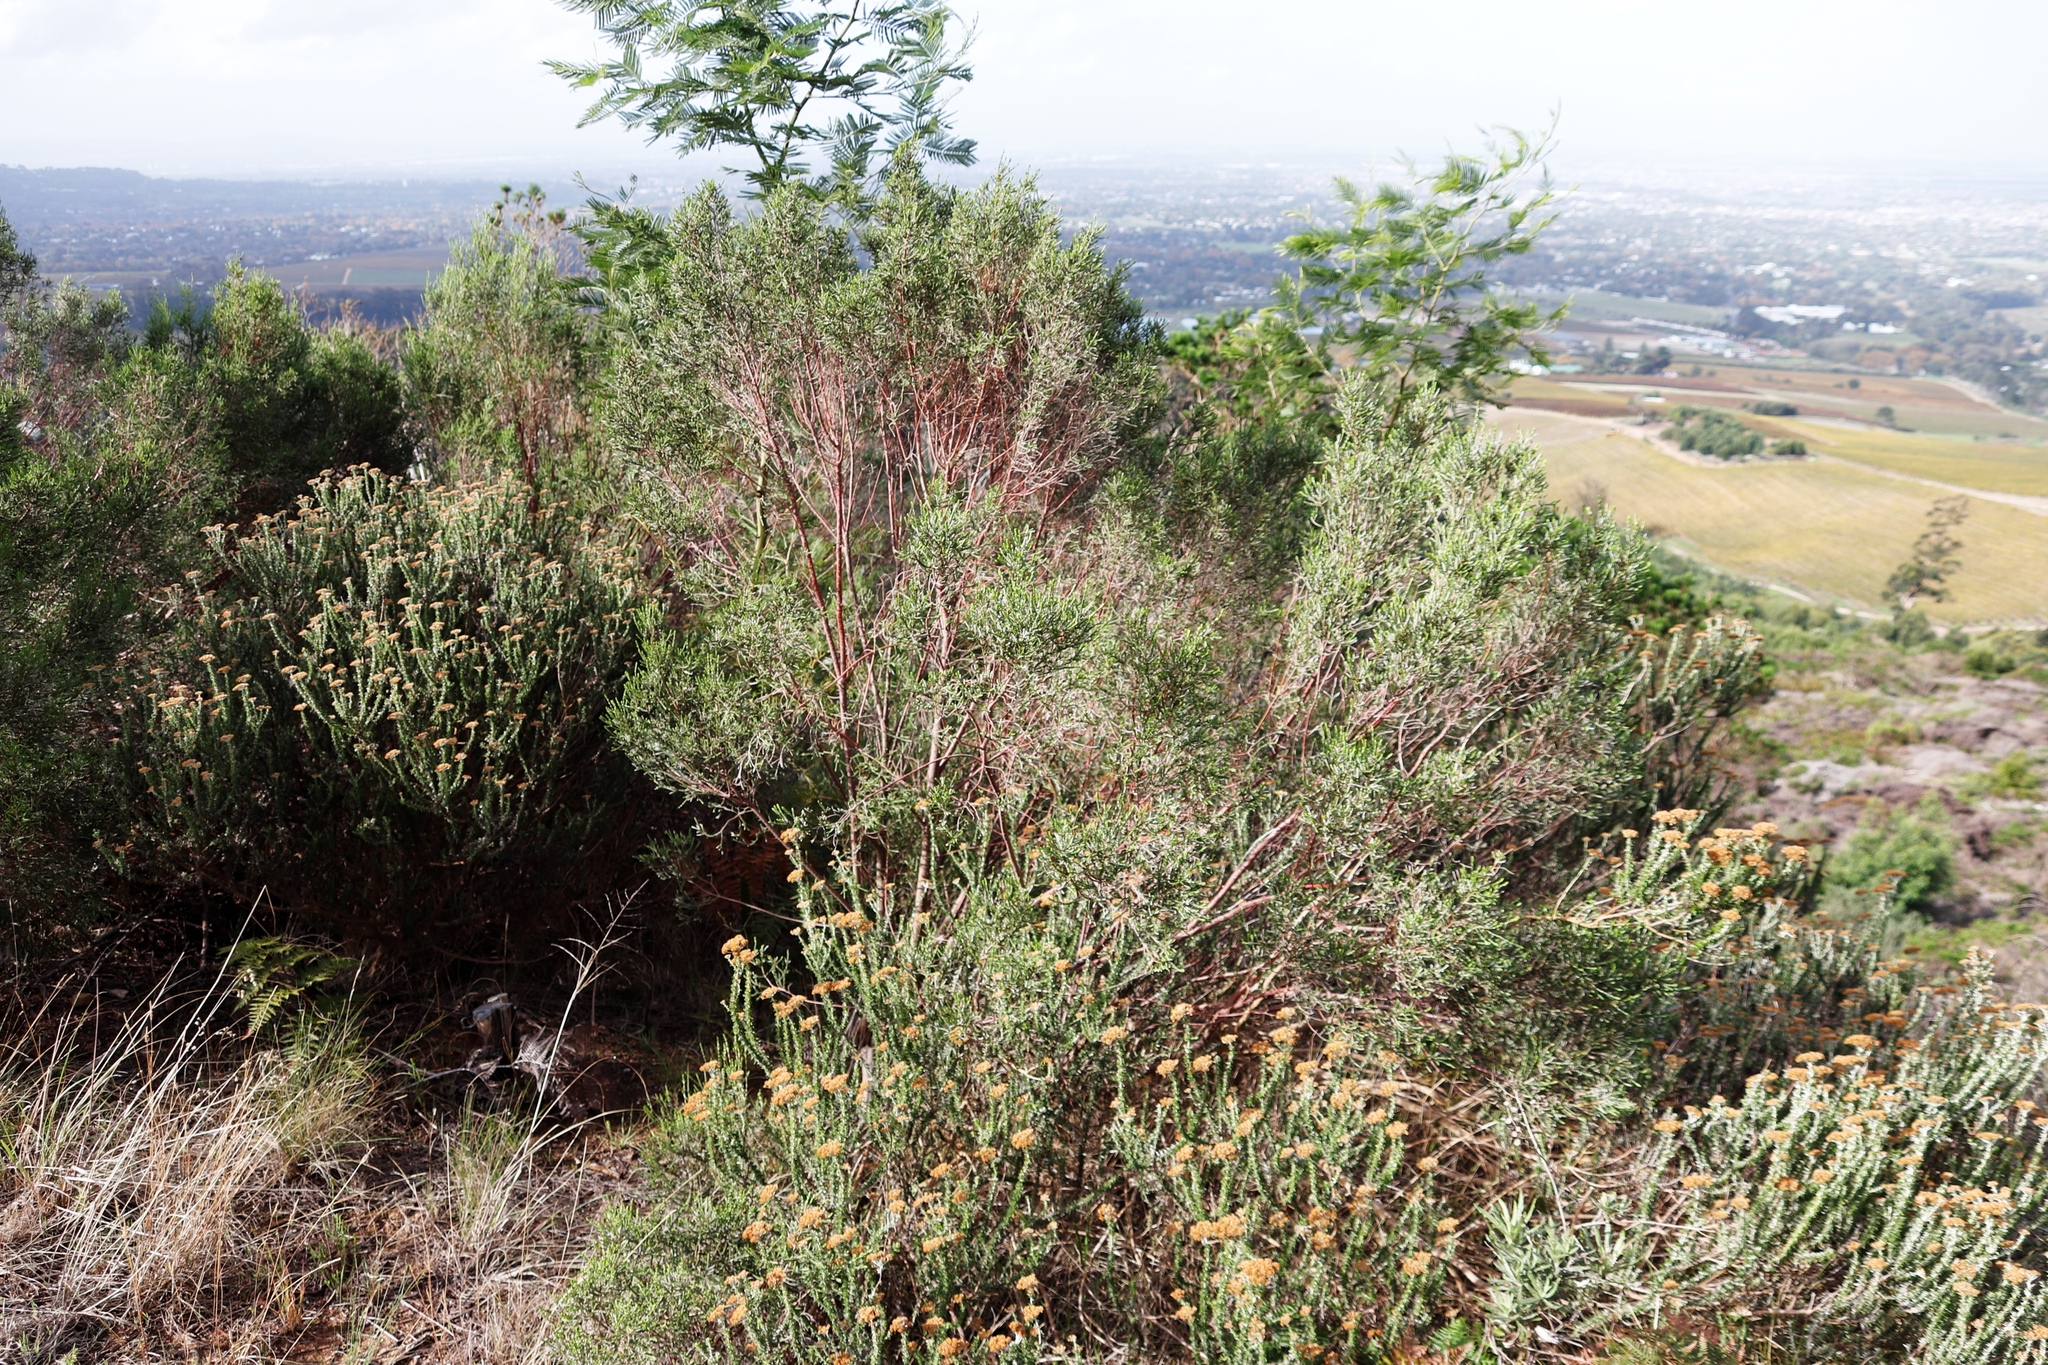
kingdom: Plantae
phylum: Tracheophyta
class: Magnoliopsida
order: Malvales
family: Thymelaeaceae
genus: Passerina
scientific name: Passerina corymbosa
